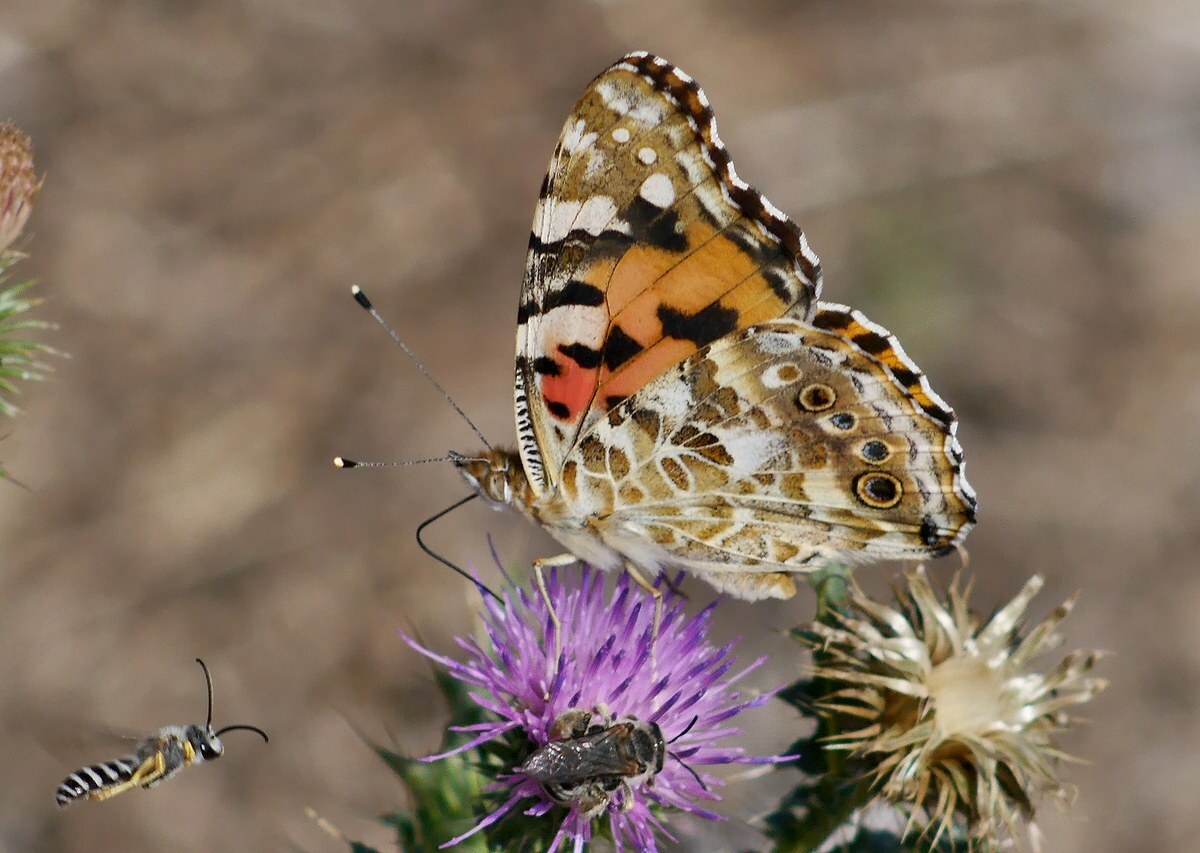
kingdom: Animalia
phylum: Arthropoda
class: Insecta
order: Lepidoptera
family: Nymphalidae
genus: Vanessa
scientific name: Vanessa cardui
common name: Painted lady
